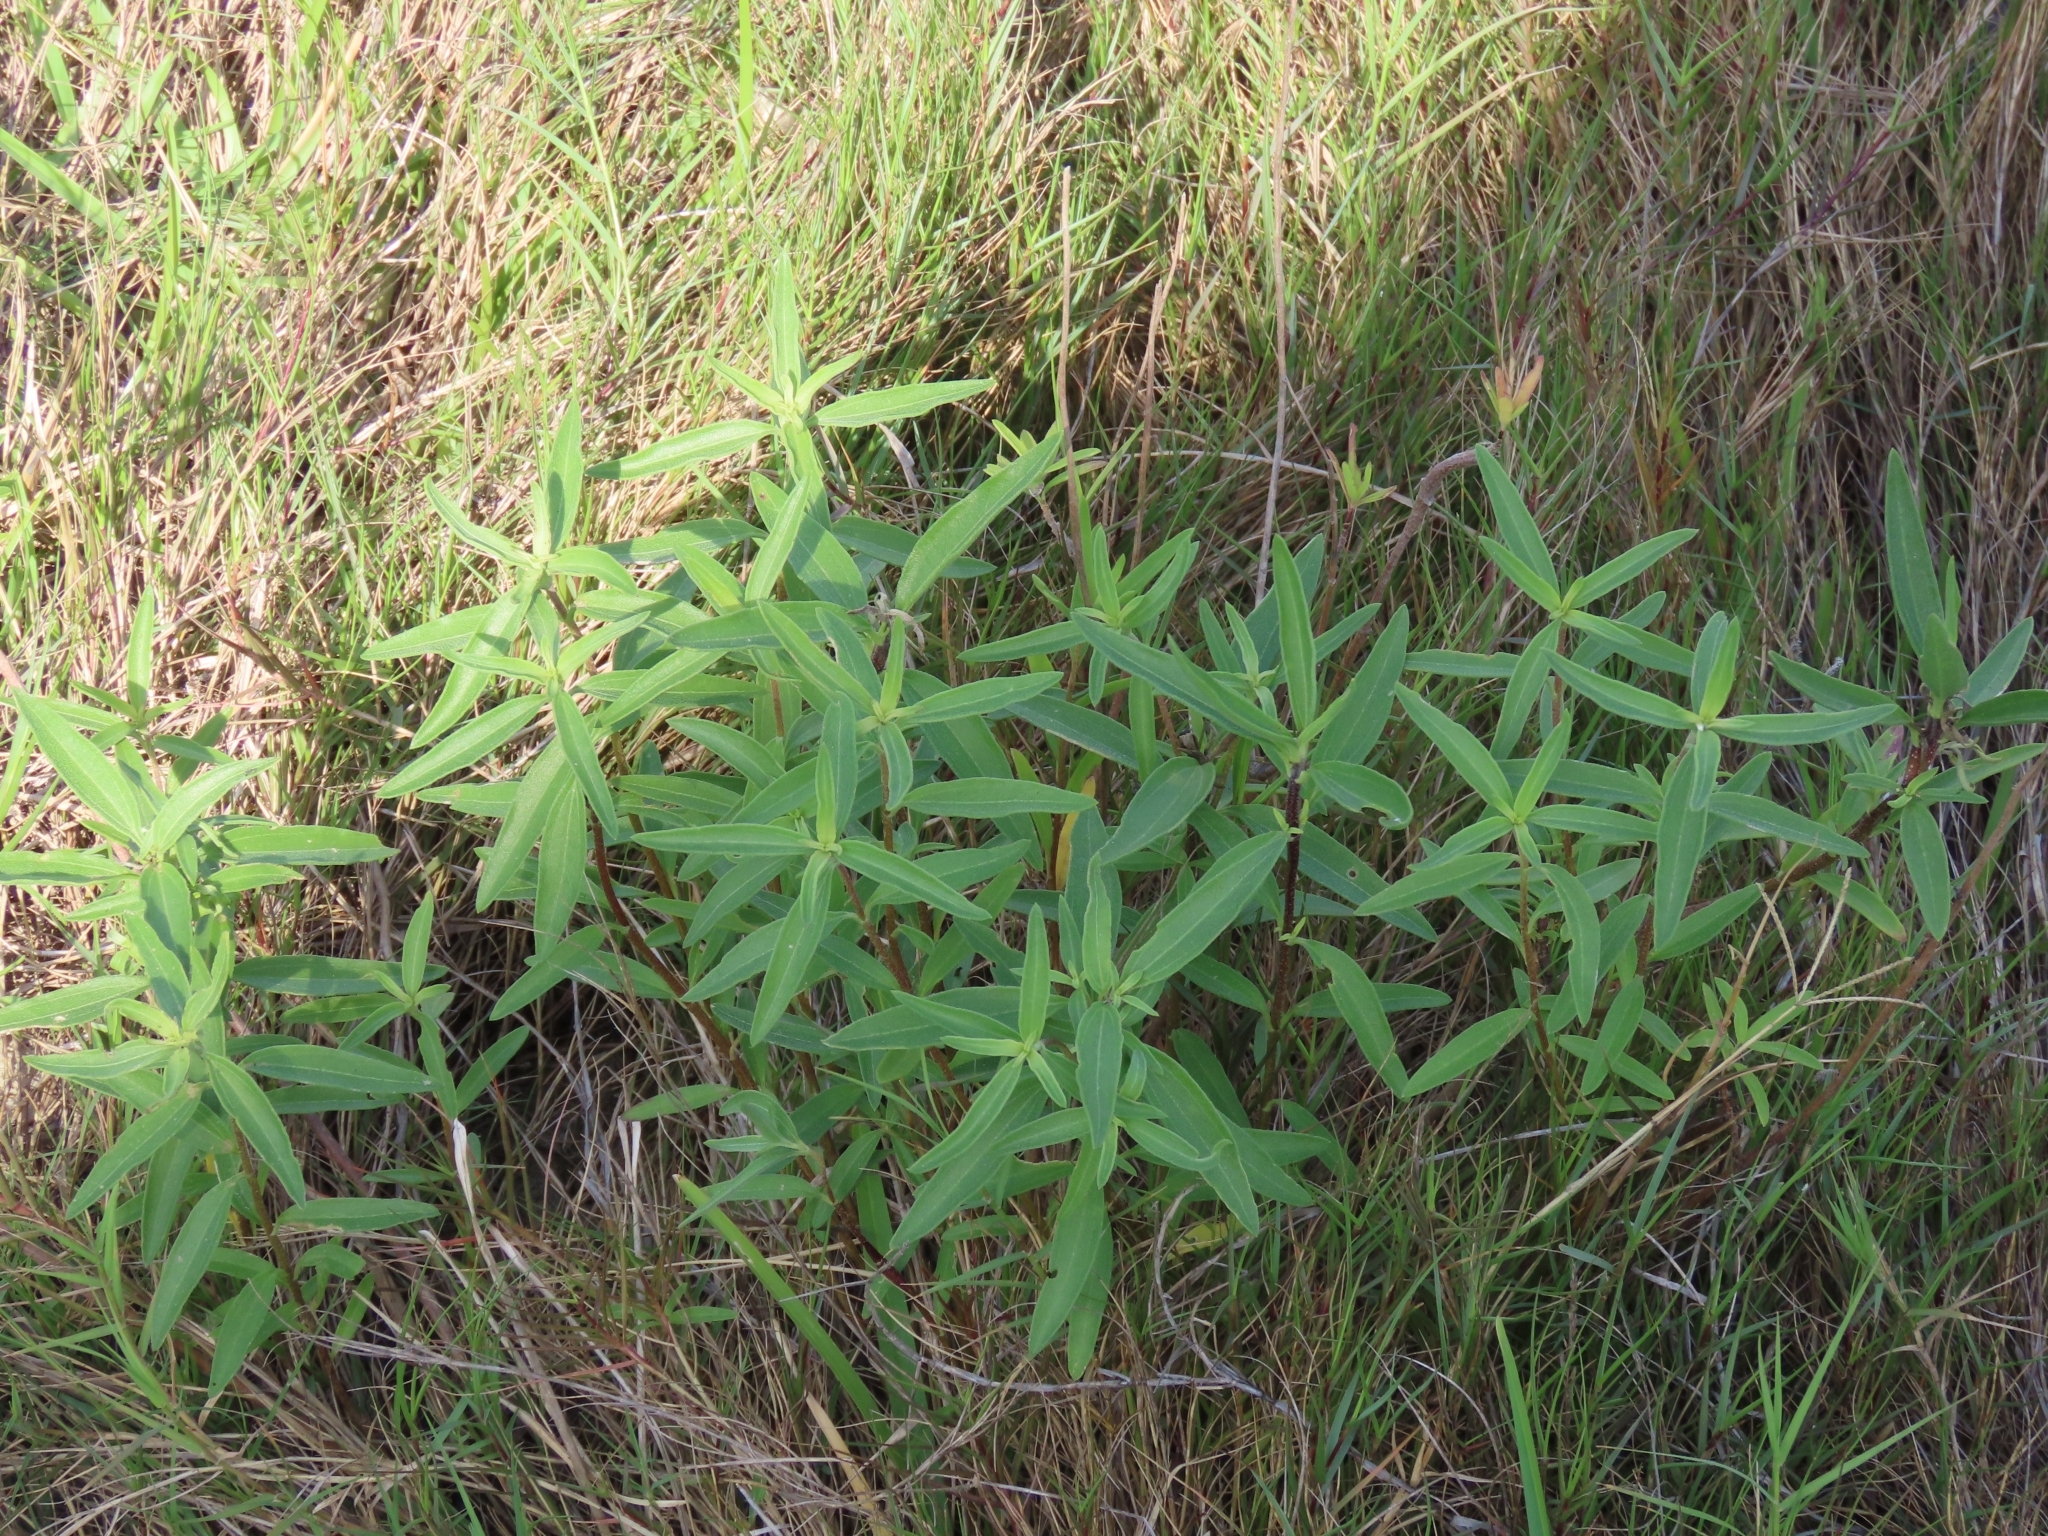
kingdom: Plantae
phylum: Tracheophyta
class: Magnoliopsida
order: Asterales
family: Asteraceae
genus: Iva
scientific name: Iva texensis
